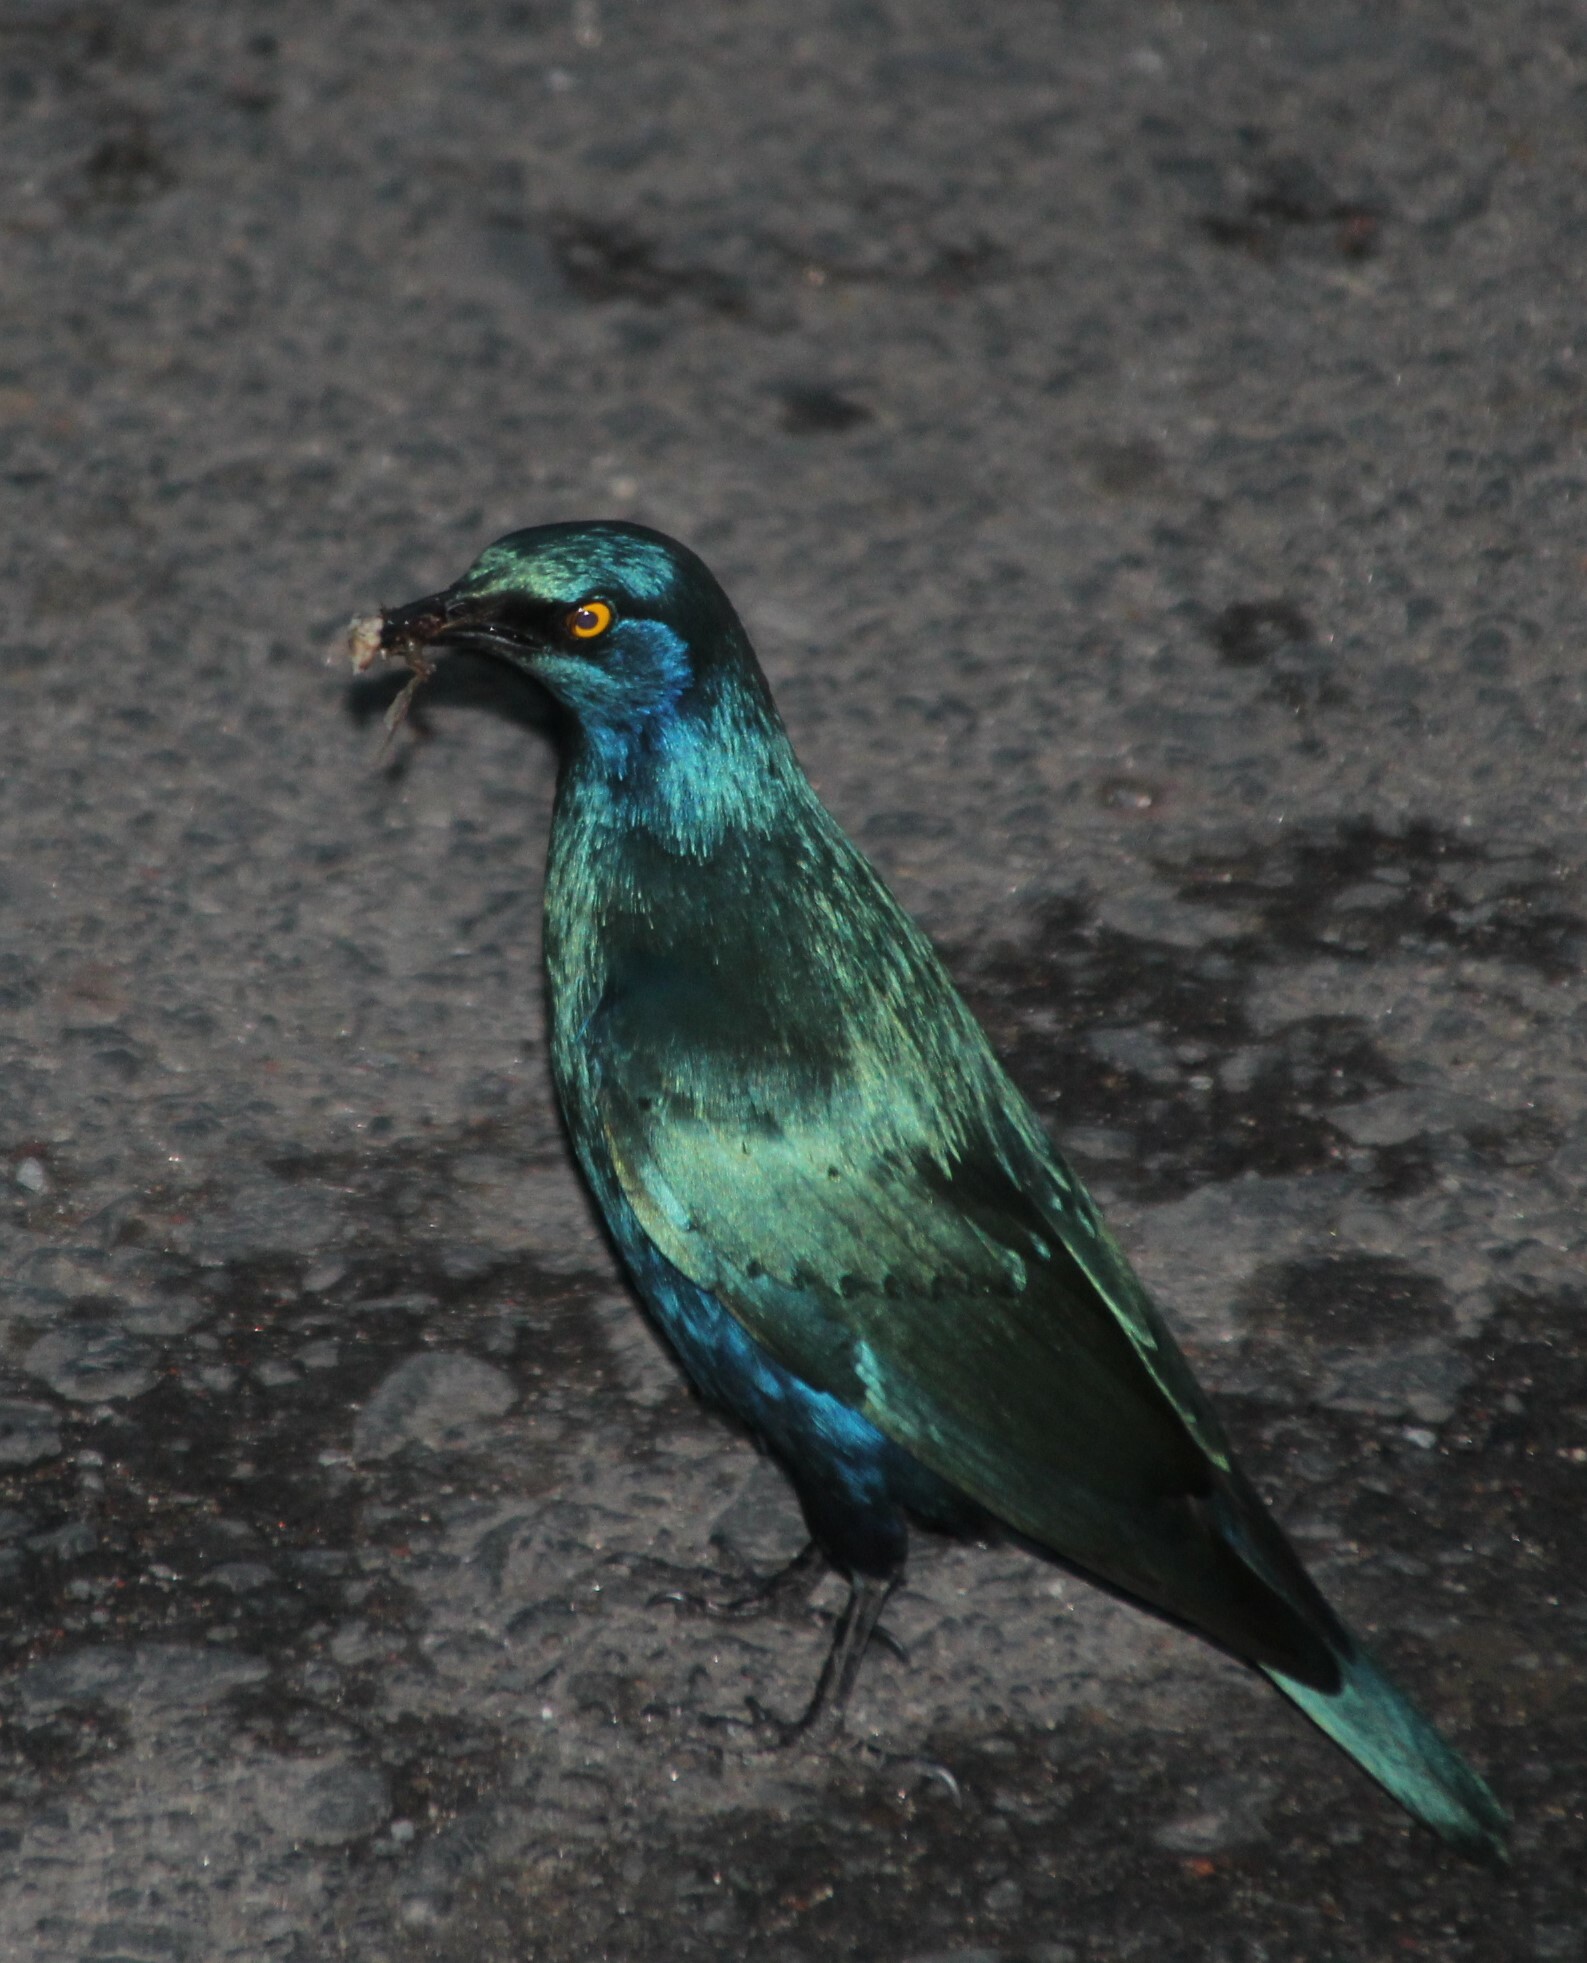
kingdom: Animalia
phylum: Chordata
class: Aves
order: Passeriformes
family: Sturnidae
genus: Lamprotornis
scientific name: Lamprotornis chalybaeus
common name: Greater blue-eared starling
